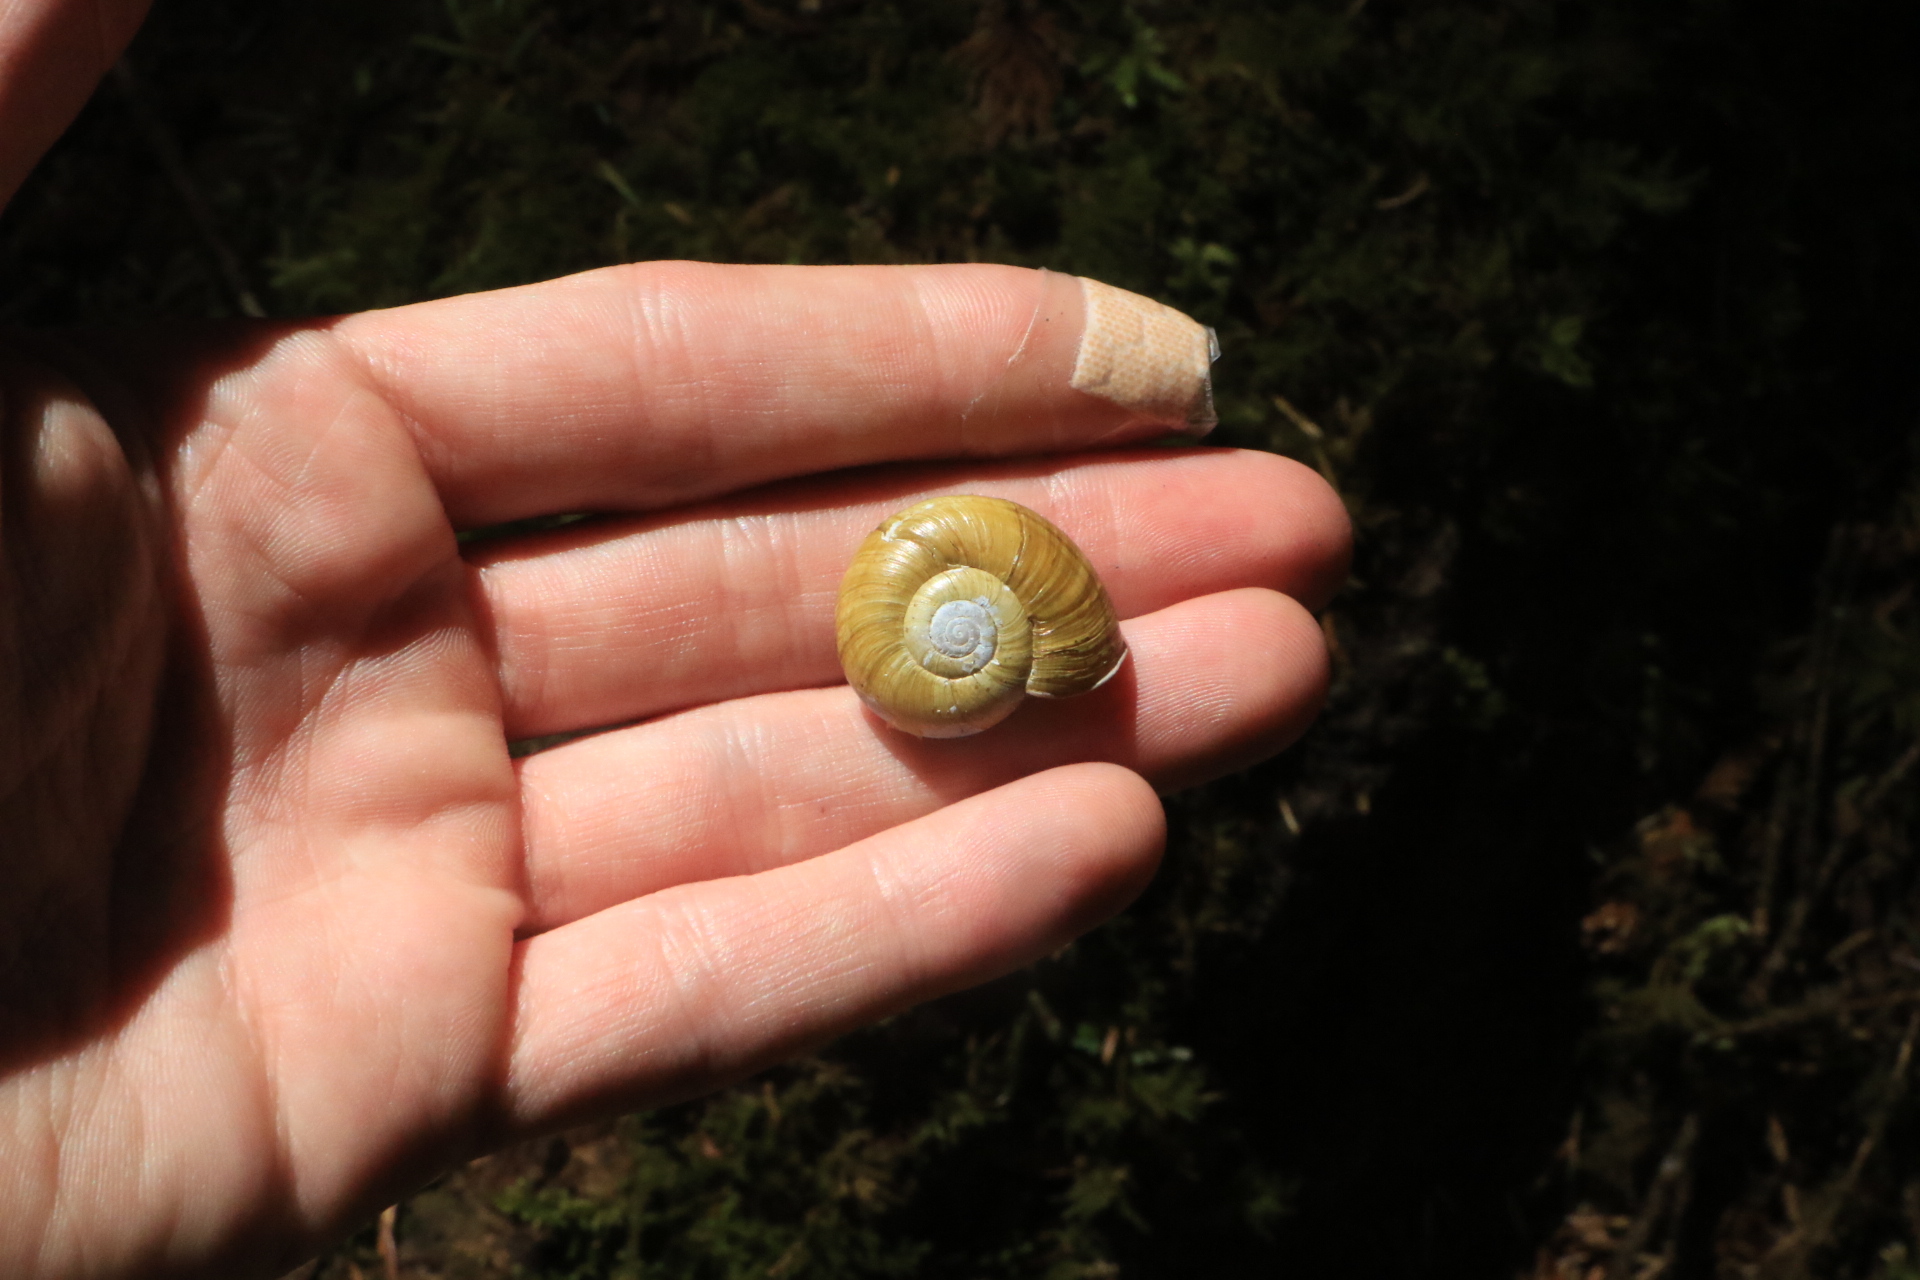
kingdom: Animalia
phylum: Mollusca
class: Gastropoda
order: Stylommatophora
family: Haplotrematidae
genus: Haplotrema
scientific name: Haplotrema vancouverense
